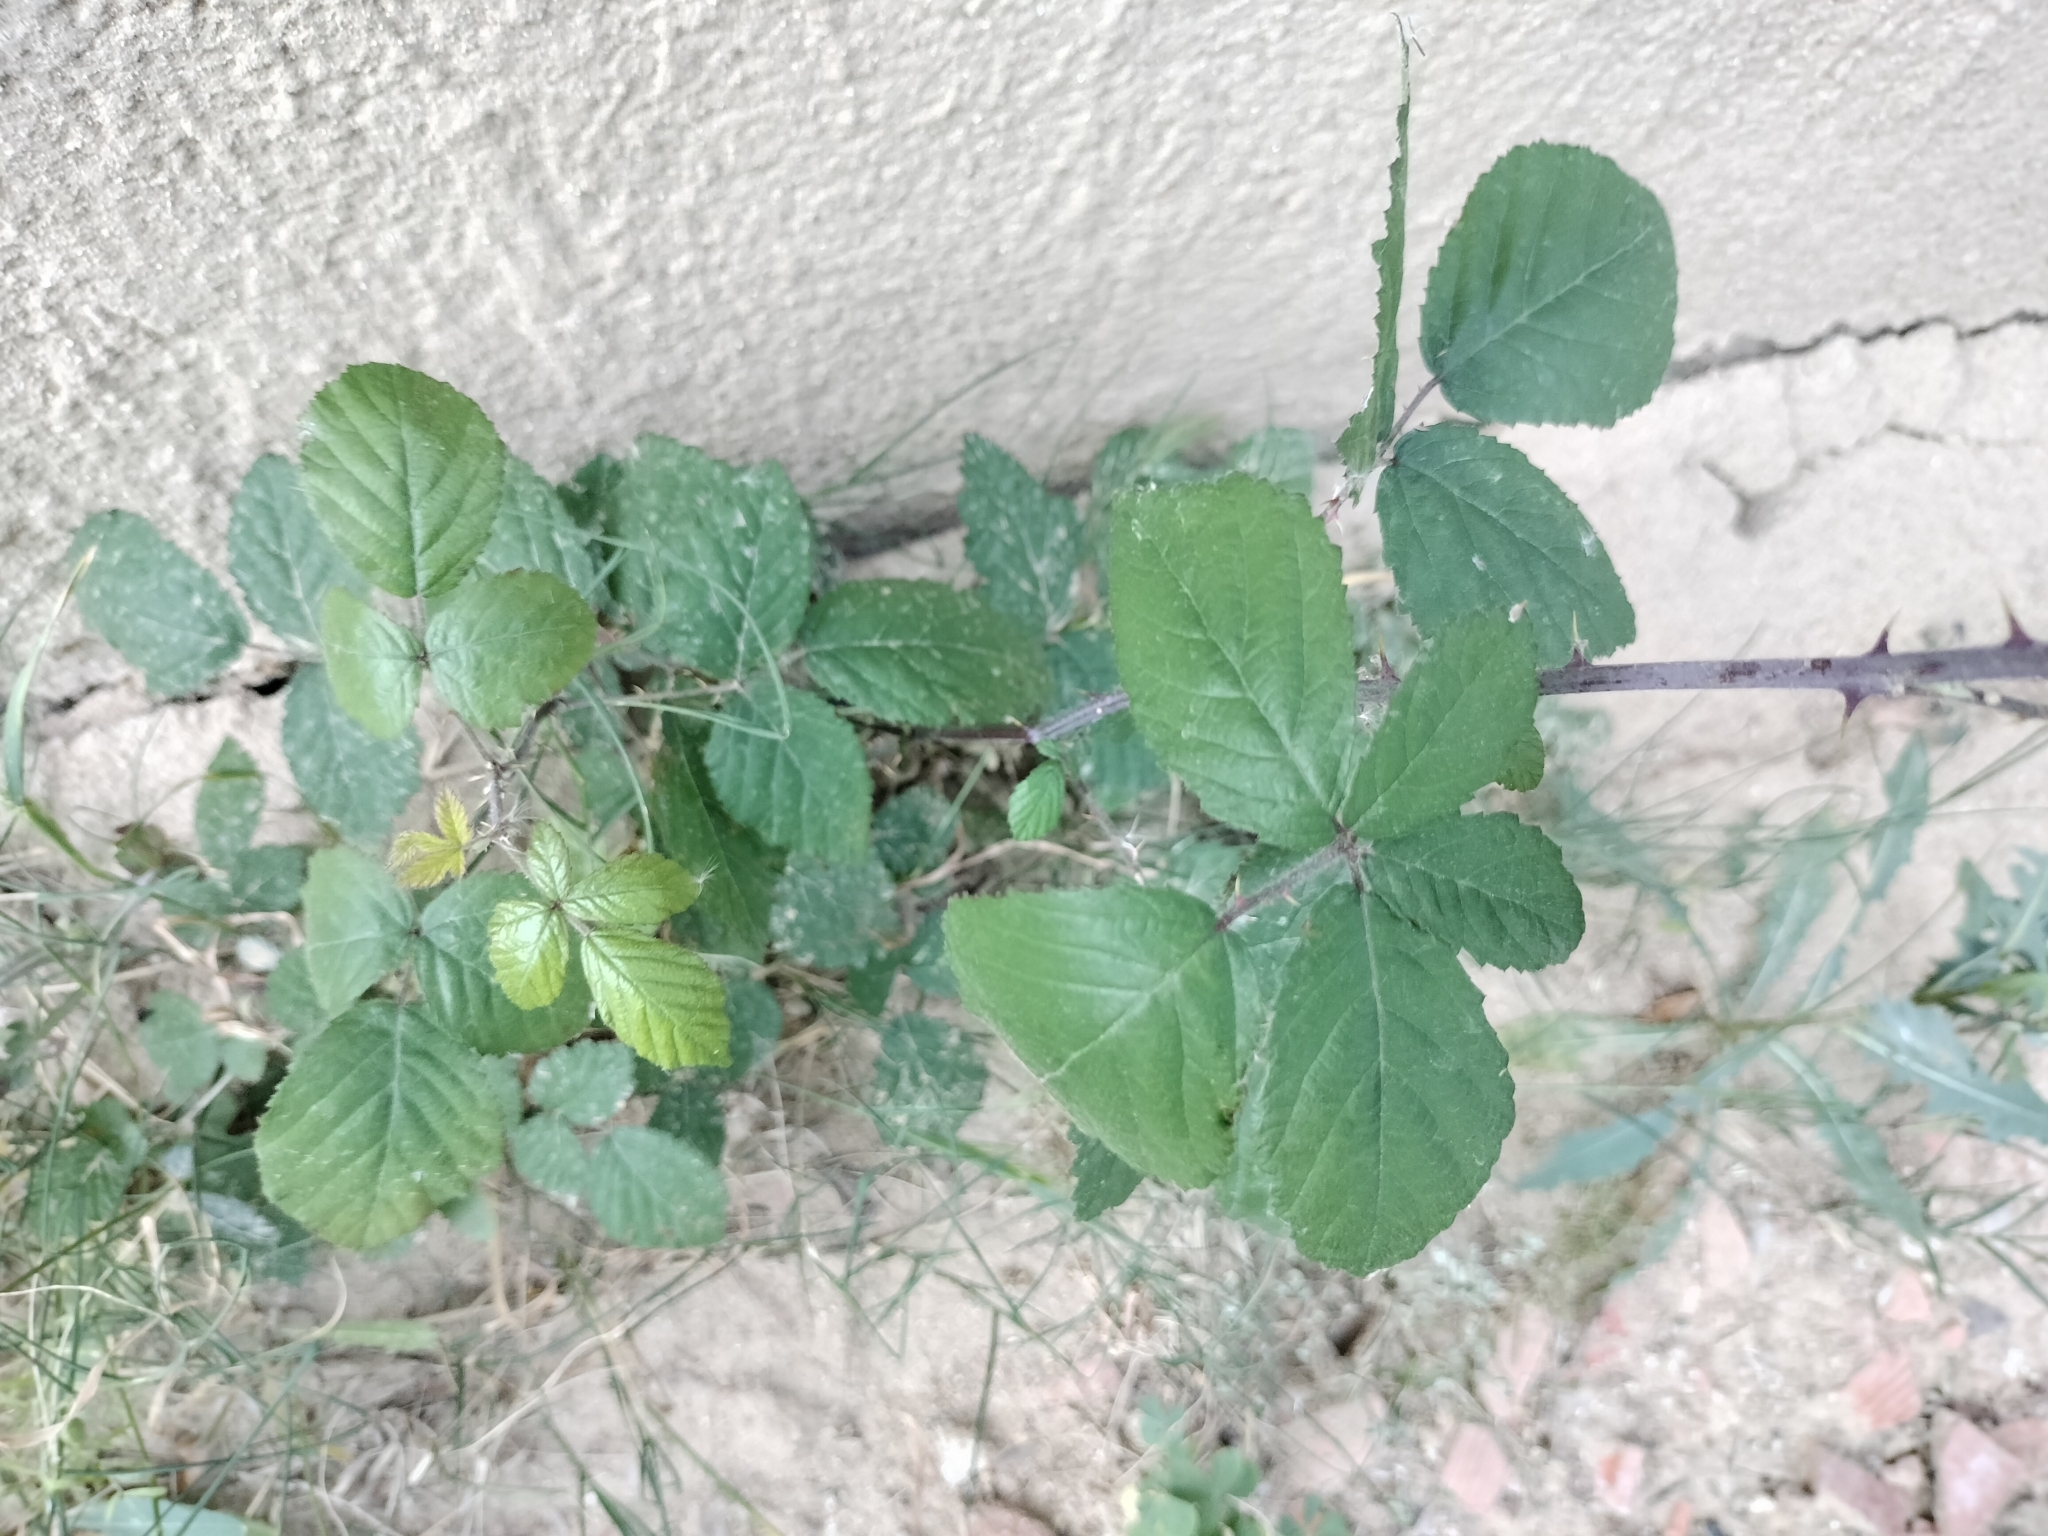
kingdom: Plantae
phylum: Tracheophyta
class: Magnoliopsida
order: Rosales
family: Rosaceae
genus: Rubus
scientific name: Rubus ulmifolius
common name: Elmleaf blackberry
